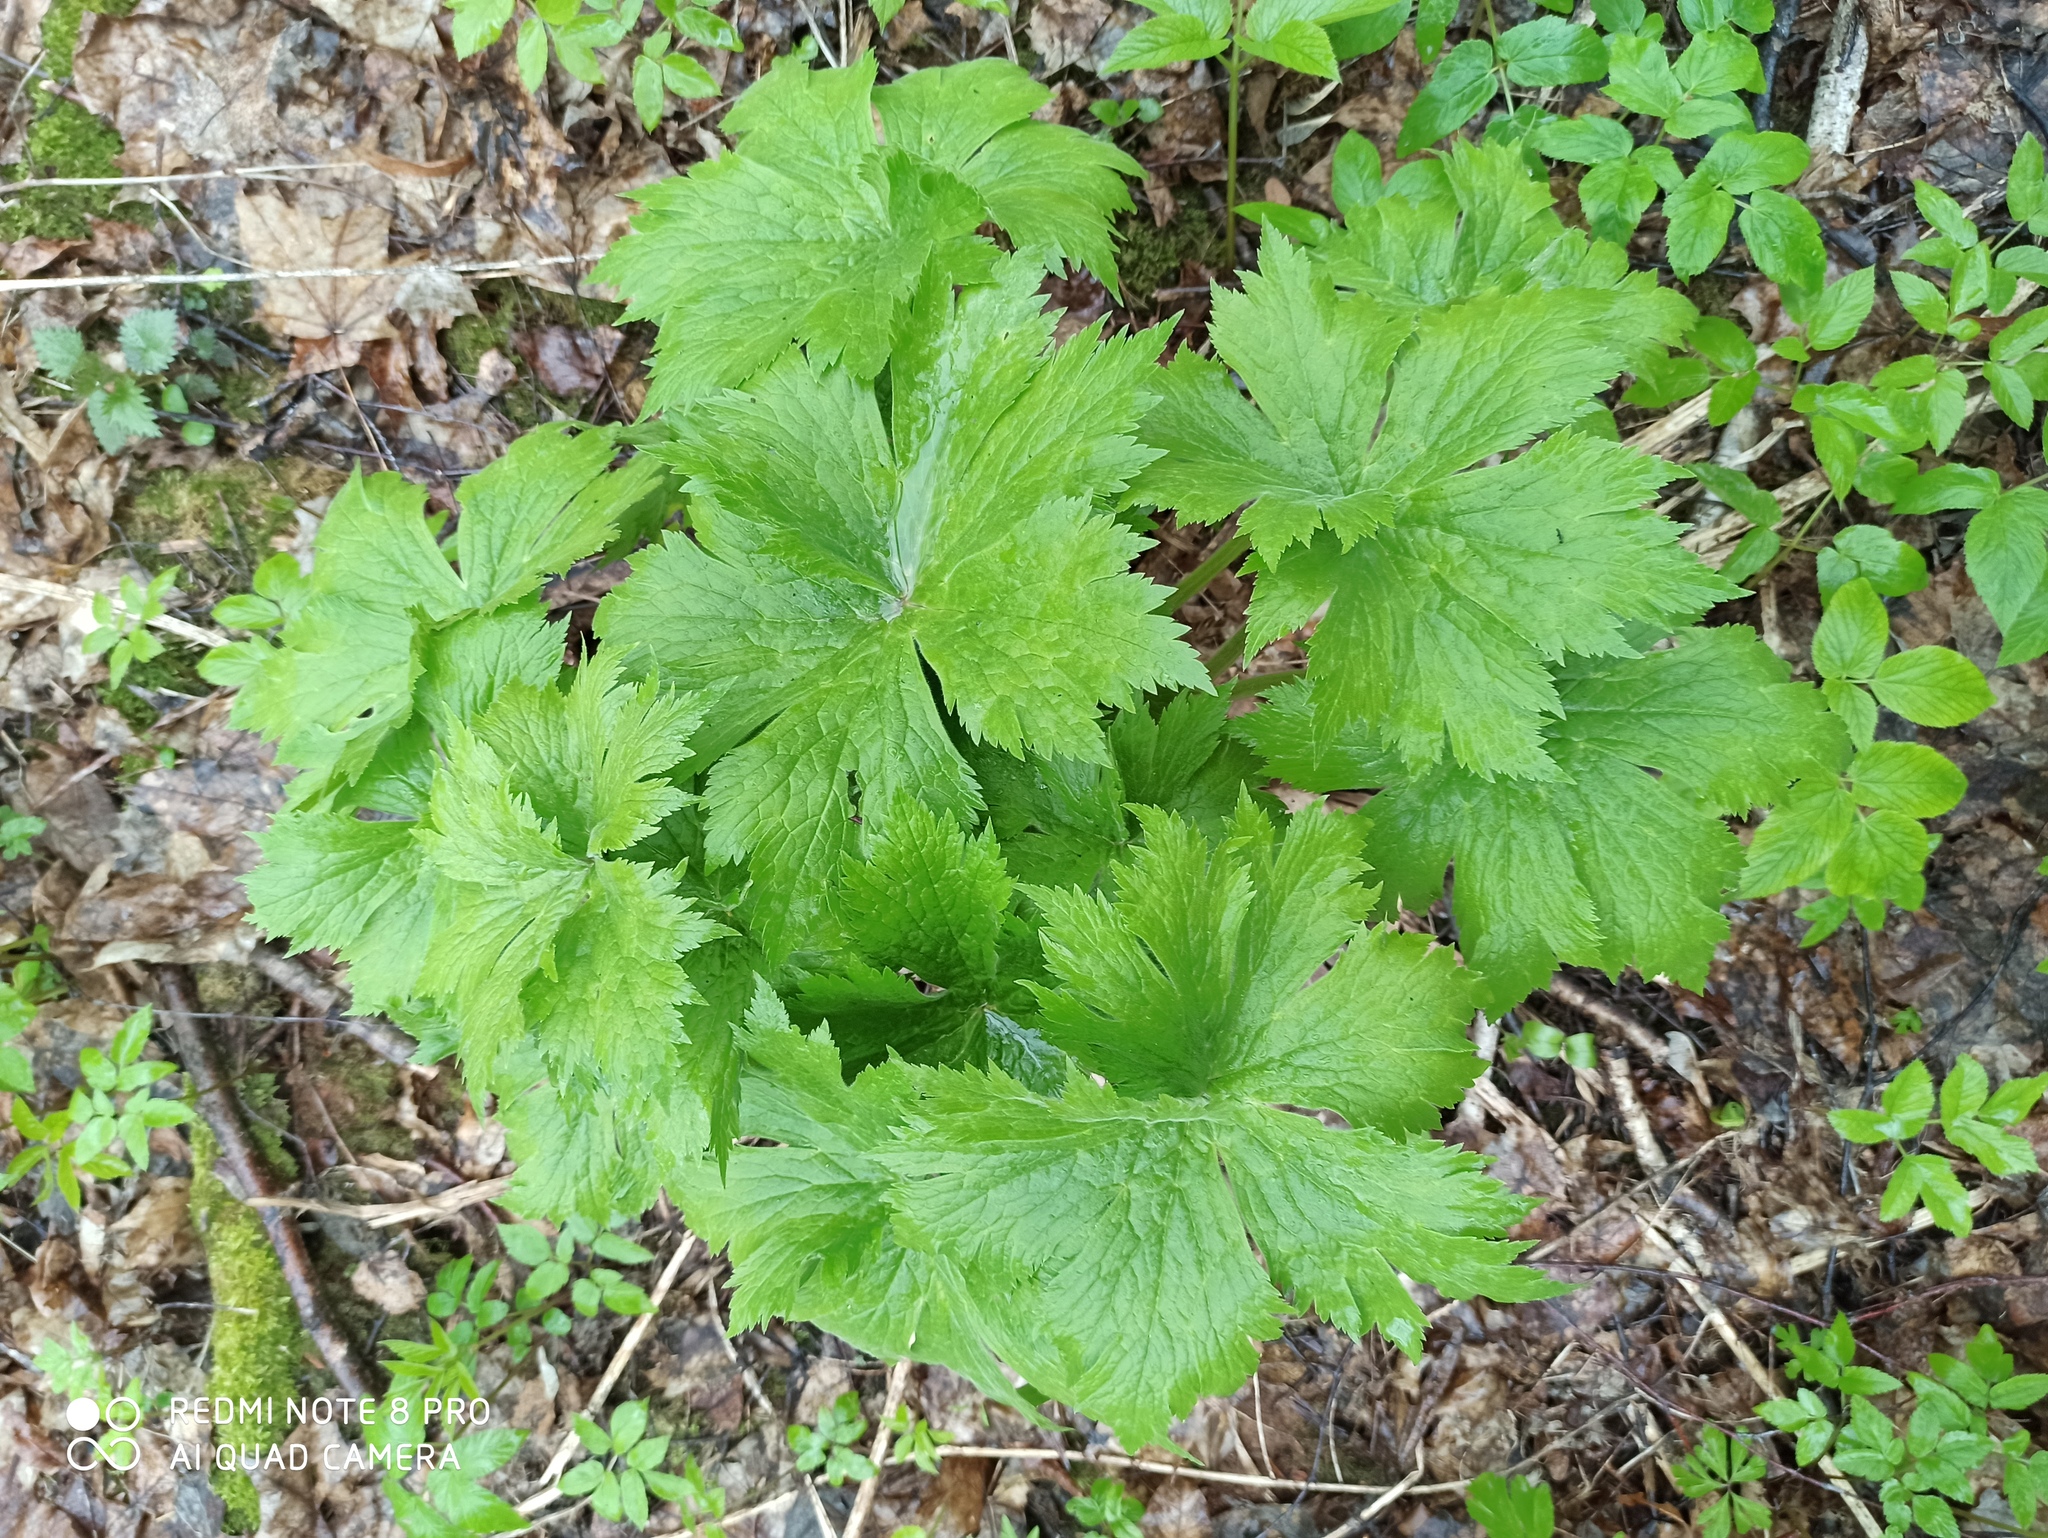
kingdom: Plantae
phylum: Tracheophyta
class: Magnoliopsida
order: Ranunculales
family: Ranunculaceae
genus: Aconitum
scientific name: Aconitum septentrionale
